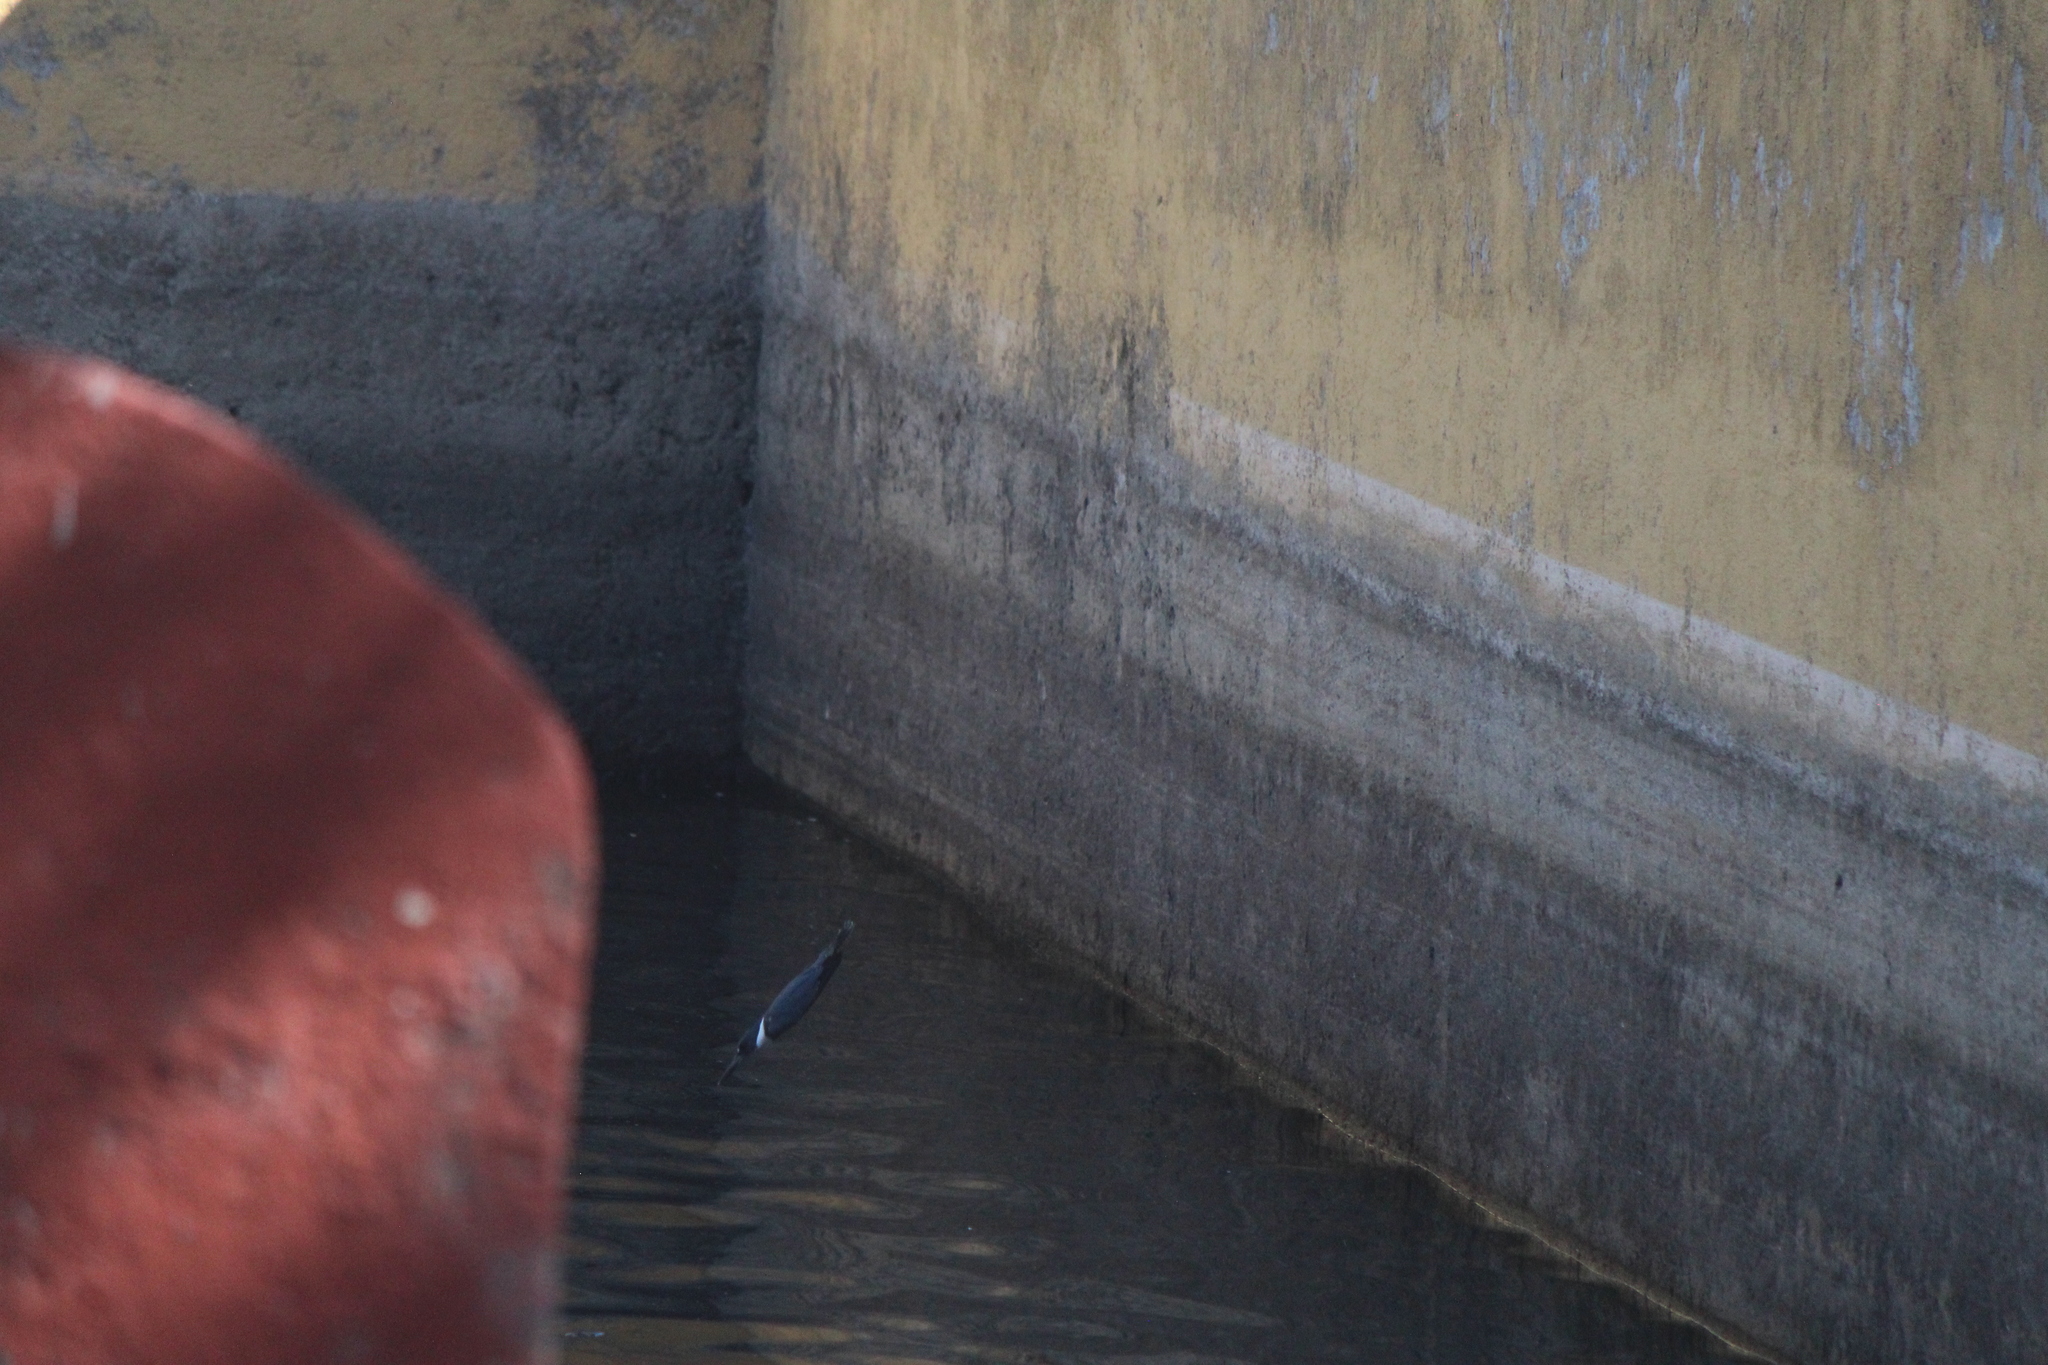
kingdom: Animalia
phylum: Chordata
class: Aves
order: Coraciiformes
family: Alcedinidae
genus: Megaceryle
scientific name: Megaceryle alcyon
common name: Belted kingfisher
